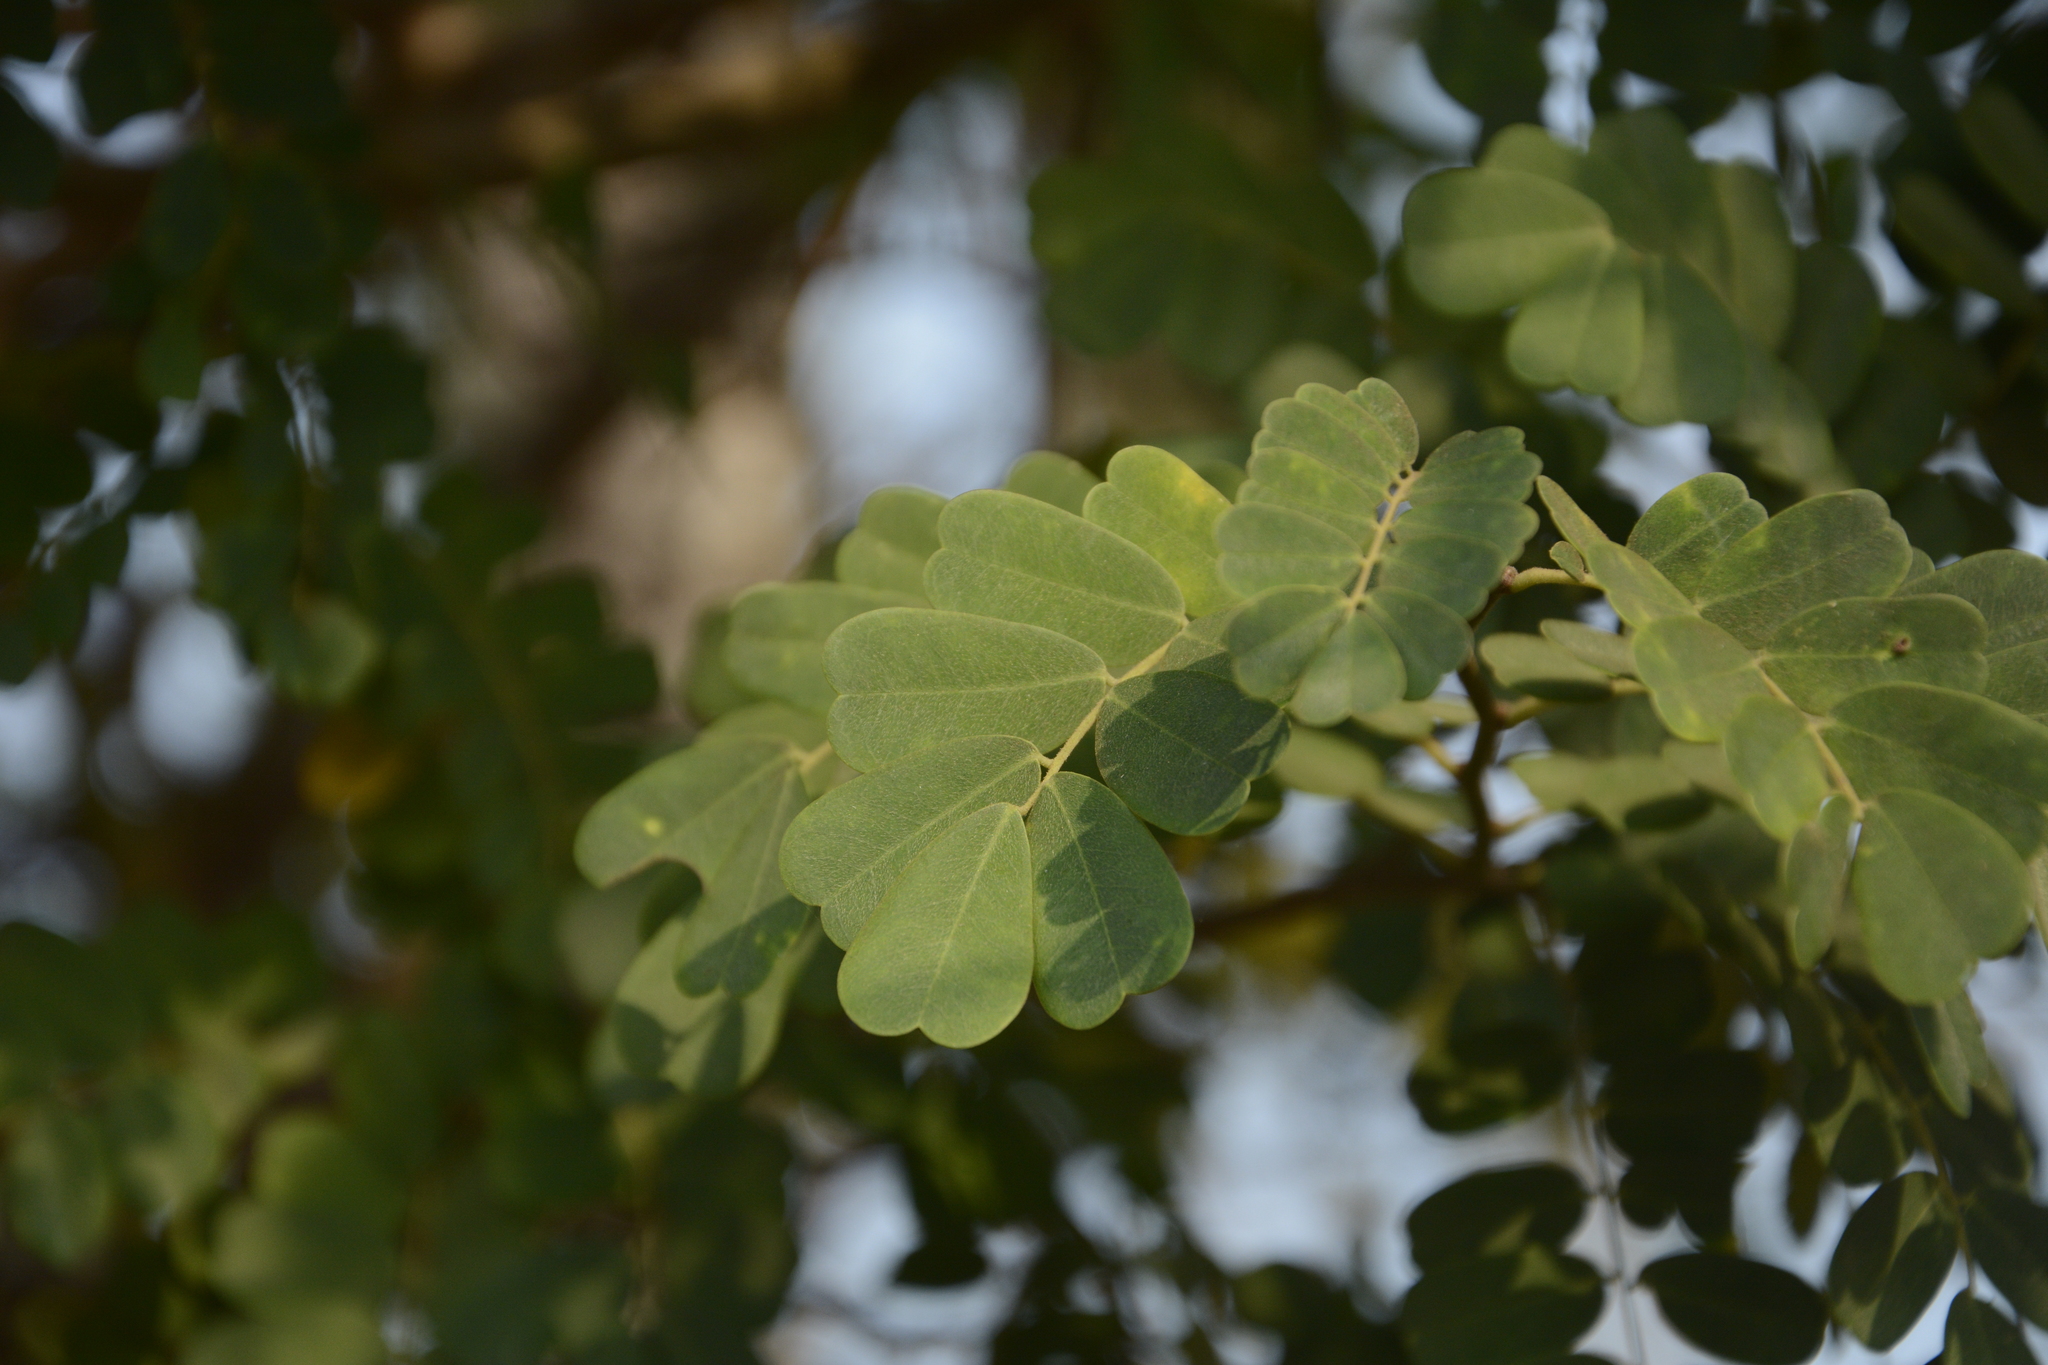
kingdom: Plantae
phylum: Tracheophyta
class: Magnoliopsida
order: Fabales
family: Fabaceae
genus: Dalbergia
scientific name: Dalbergia horrida
